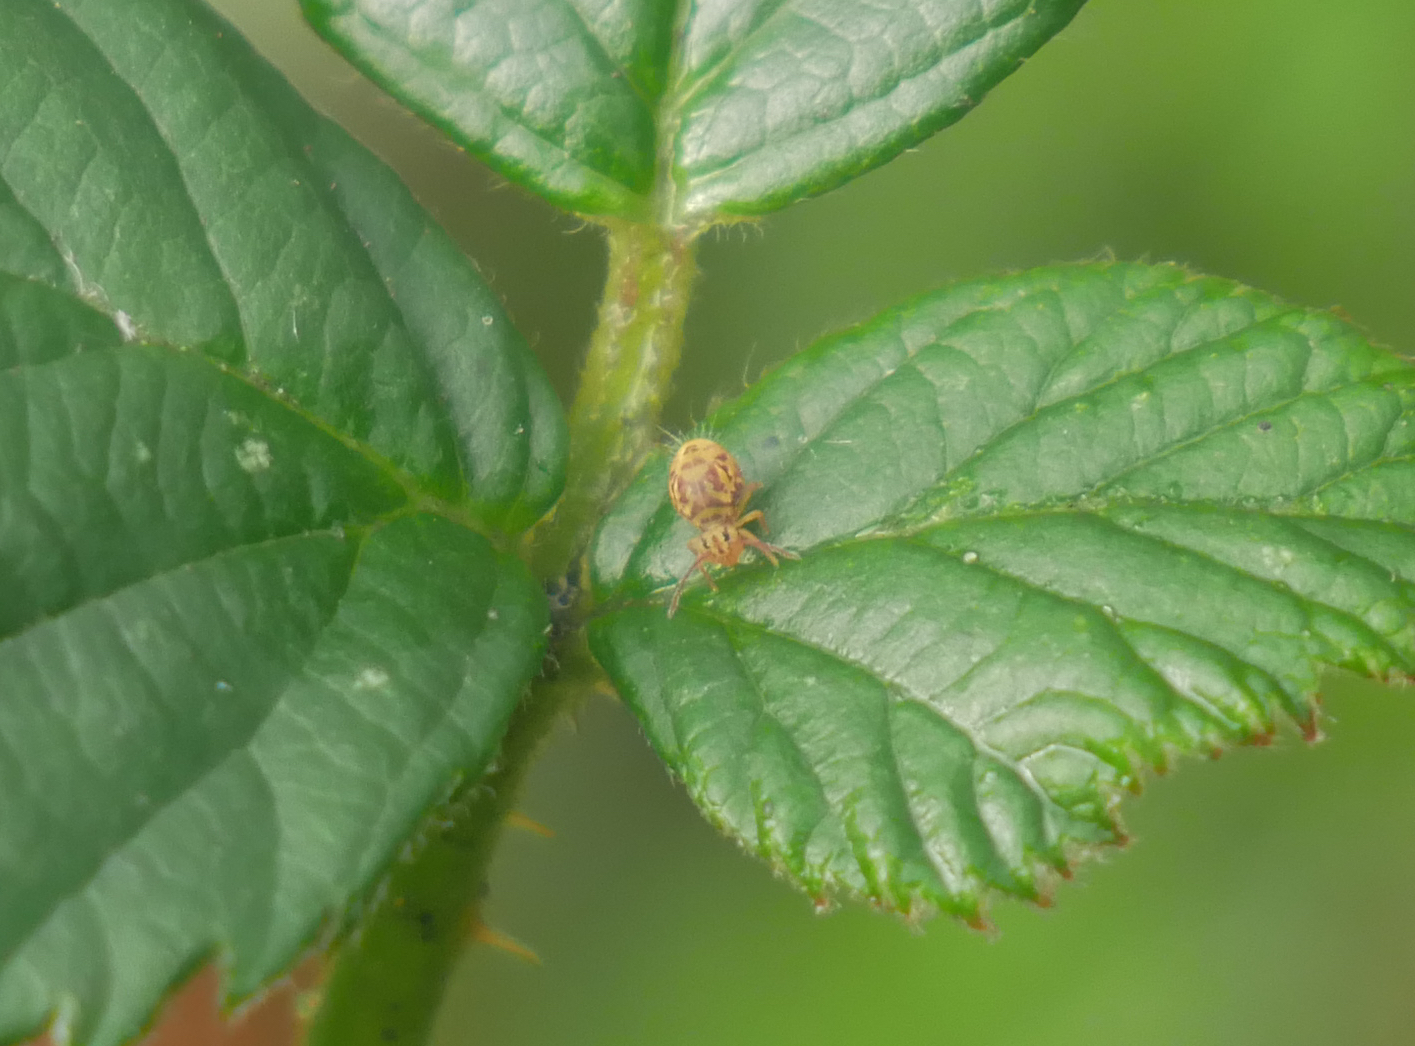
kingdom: Animalia
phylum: Arthropoda
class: Collembola
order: Symphypleona
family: Dicyrtomidae
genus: Dicyrtomina
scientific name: Dicyrtomina ornata
